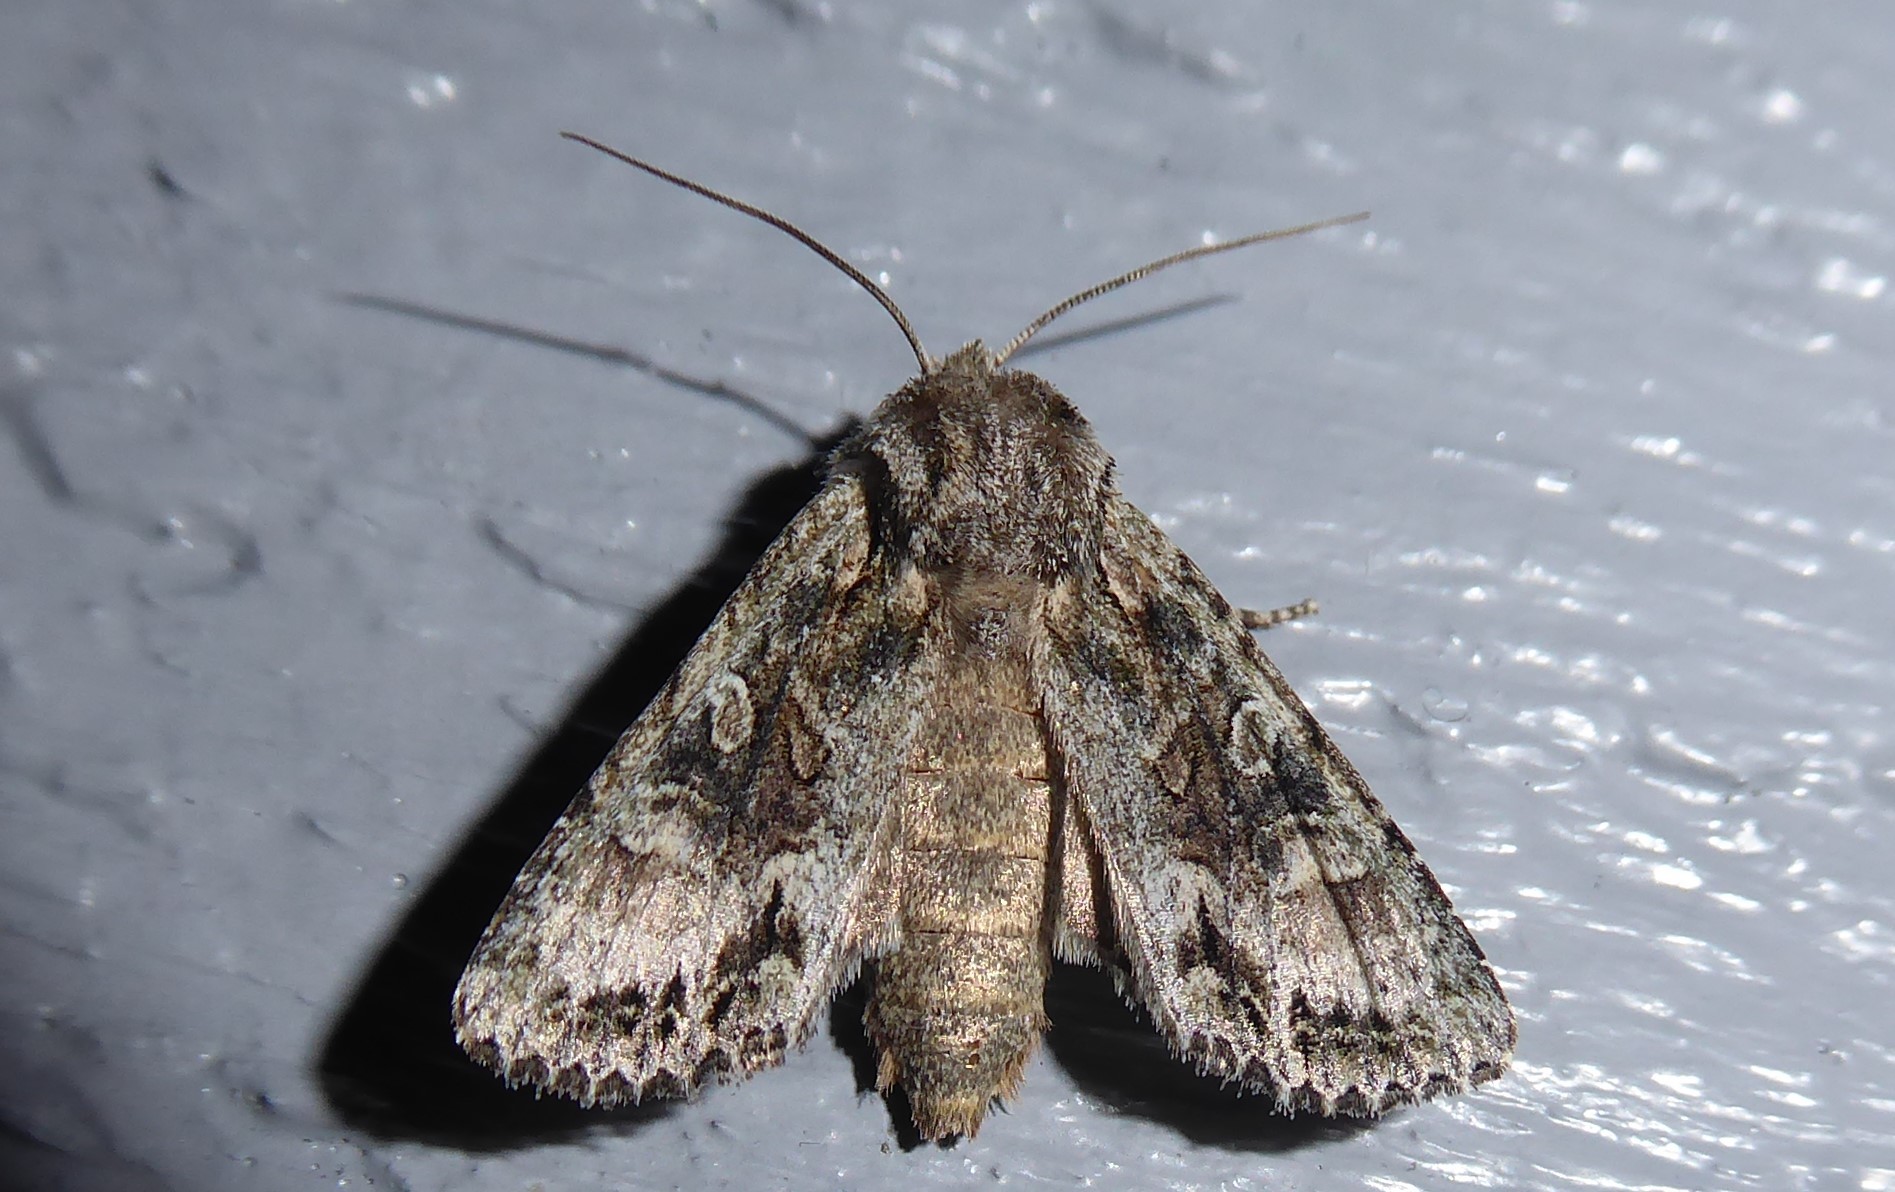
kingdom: Animalia
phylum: Arthropoda
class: Insecta
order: Lepidoptera
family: Noctuidae
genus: Ichneutica
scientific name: Ichneutica mutans
